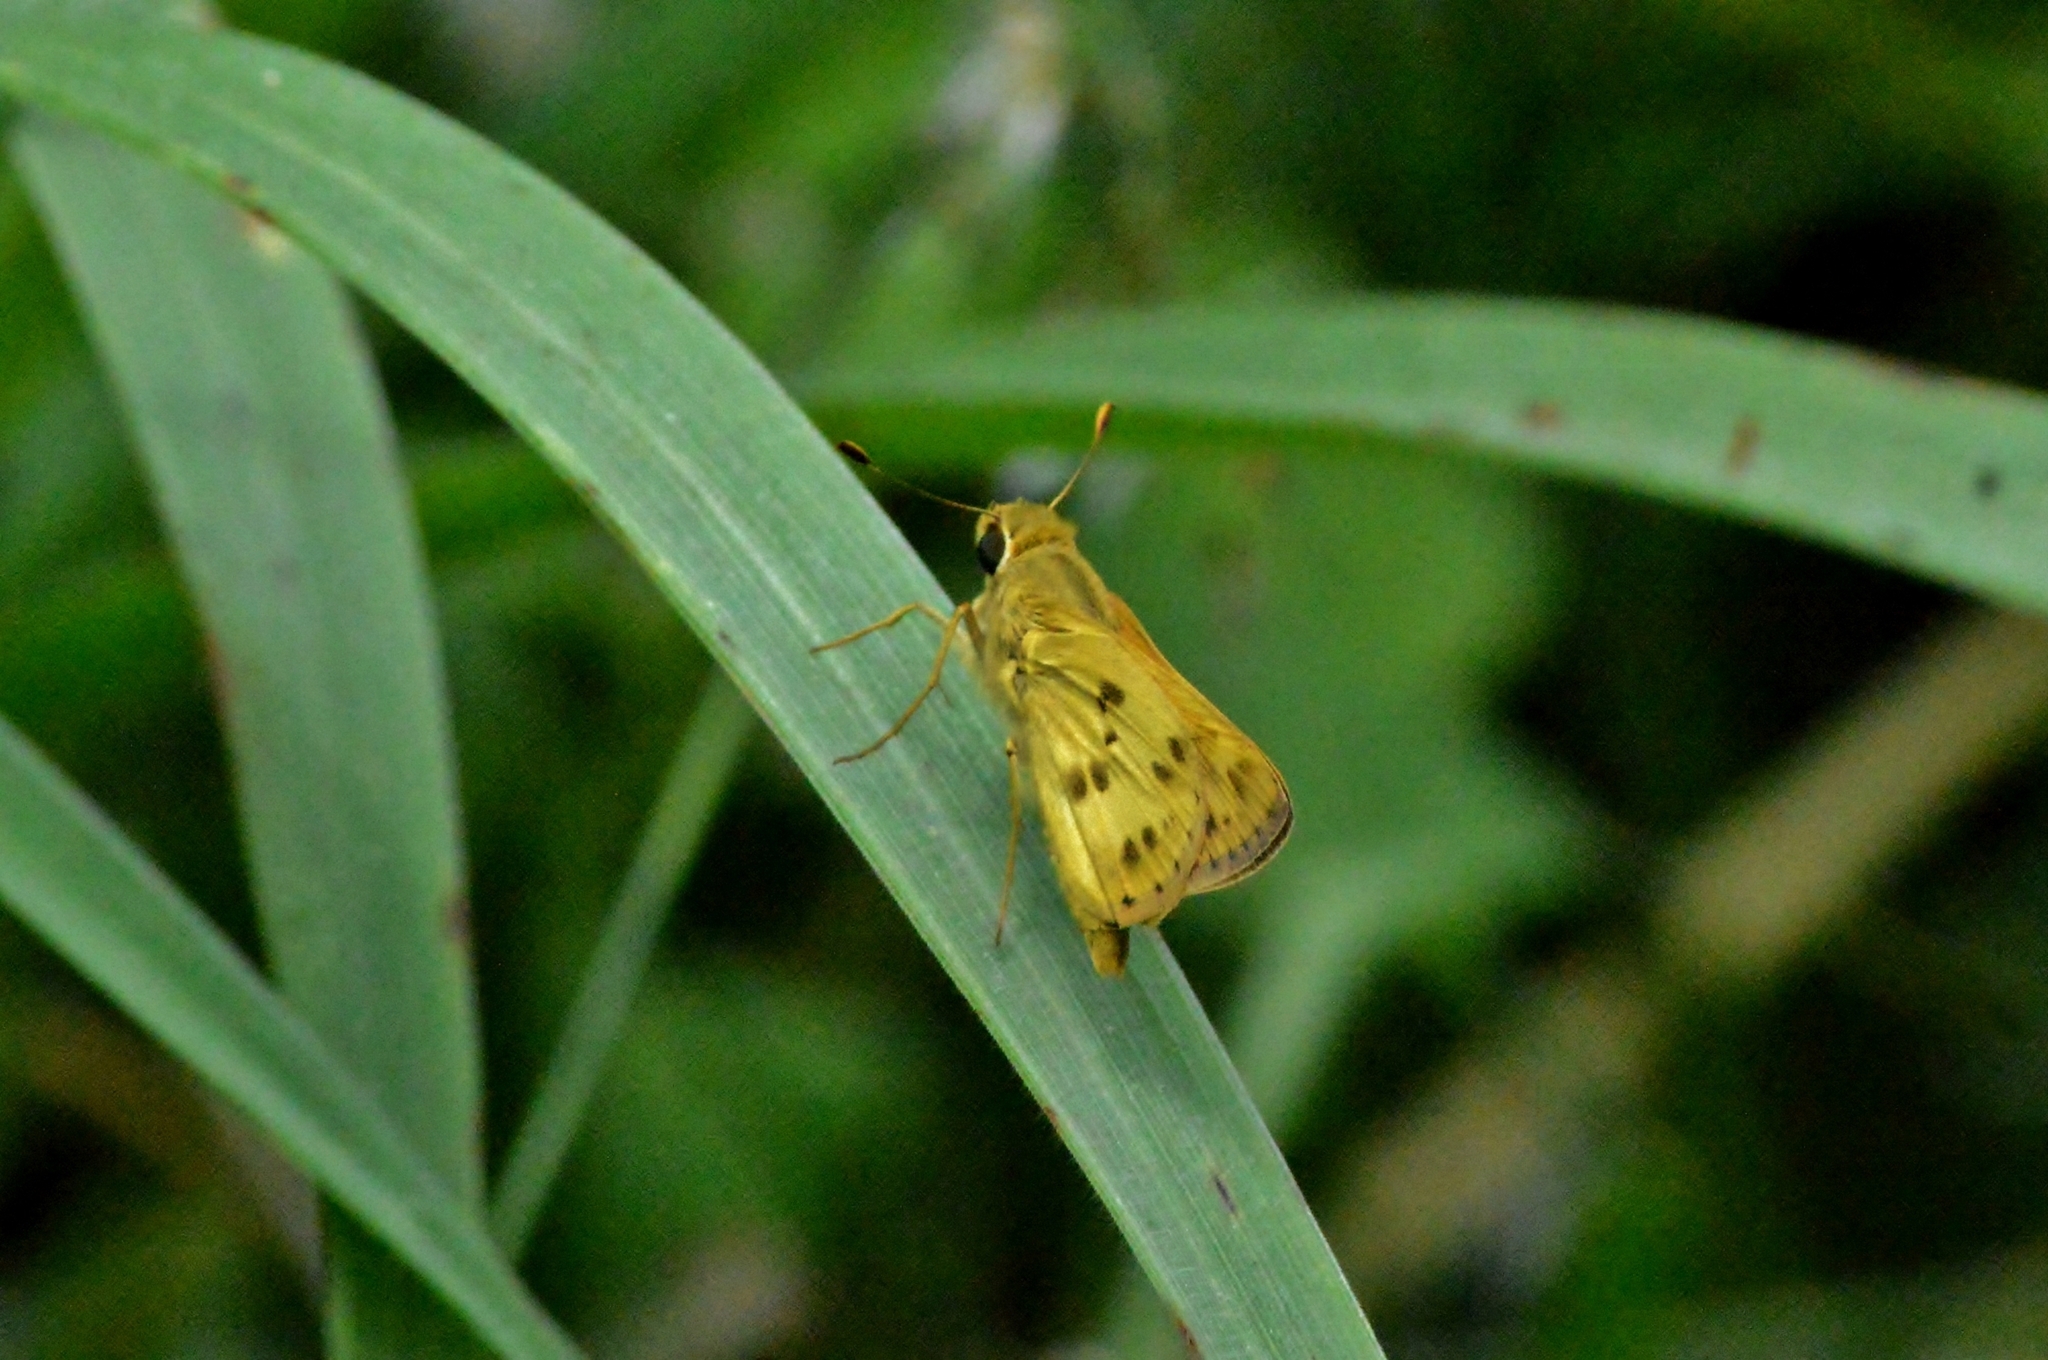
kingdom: Animalia
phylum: Arthropoda
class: Insecta
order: Lepidoptera
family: Hesperiidae
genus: Polites
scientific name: Polites vibex
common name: Whirlabout
